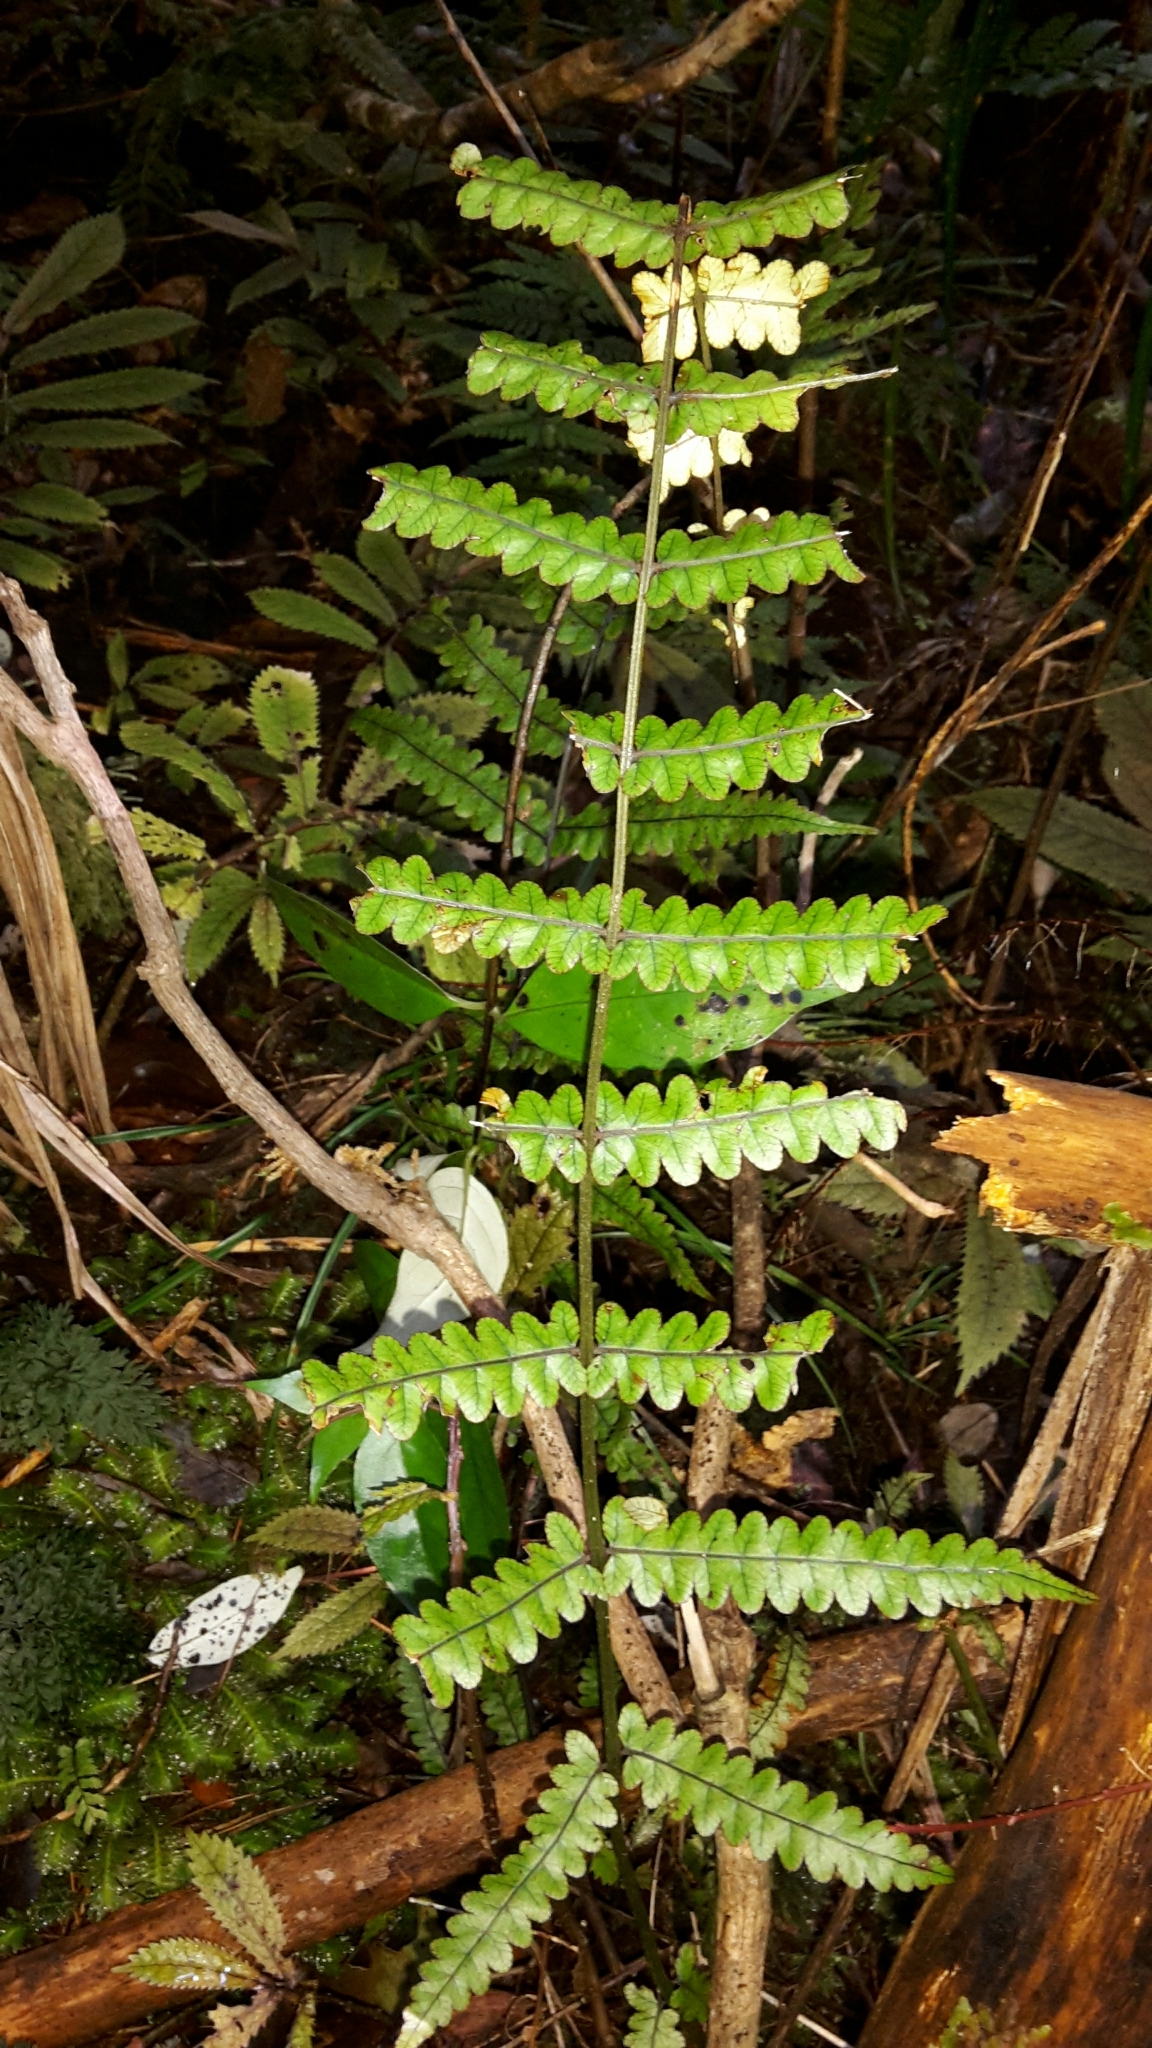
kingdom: Plantae
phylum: Tracheophyta
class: Polypodiopsida
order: Polypodiales
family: Thelypteridaceae
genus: Pakau
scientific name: Pakau pennigera
